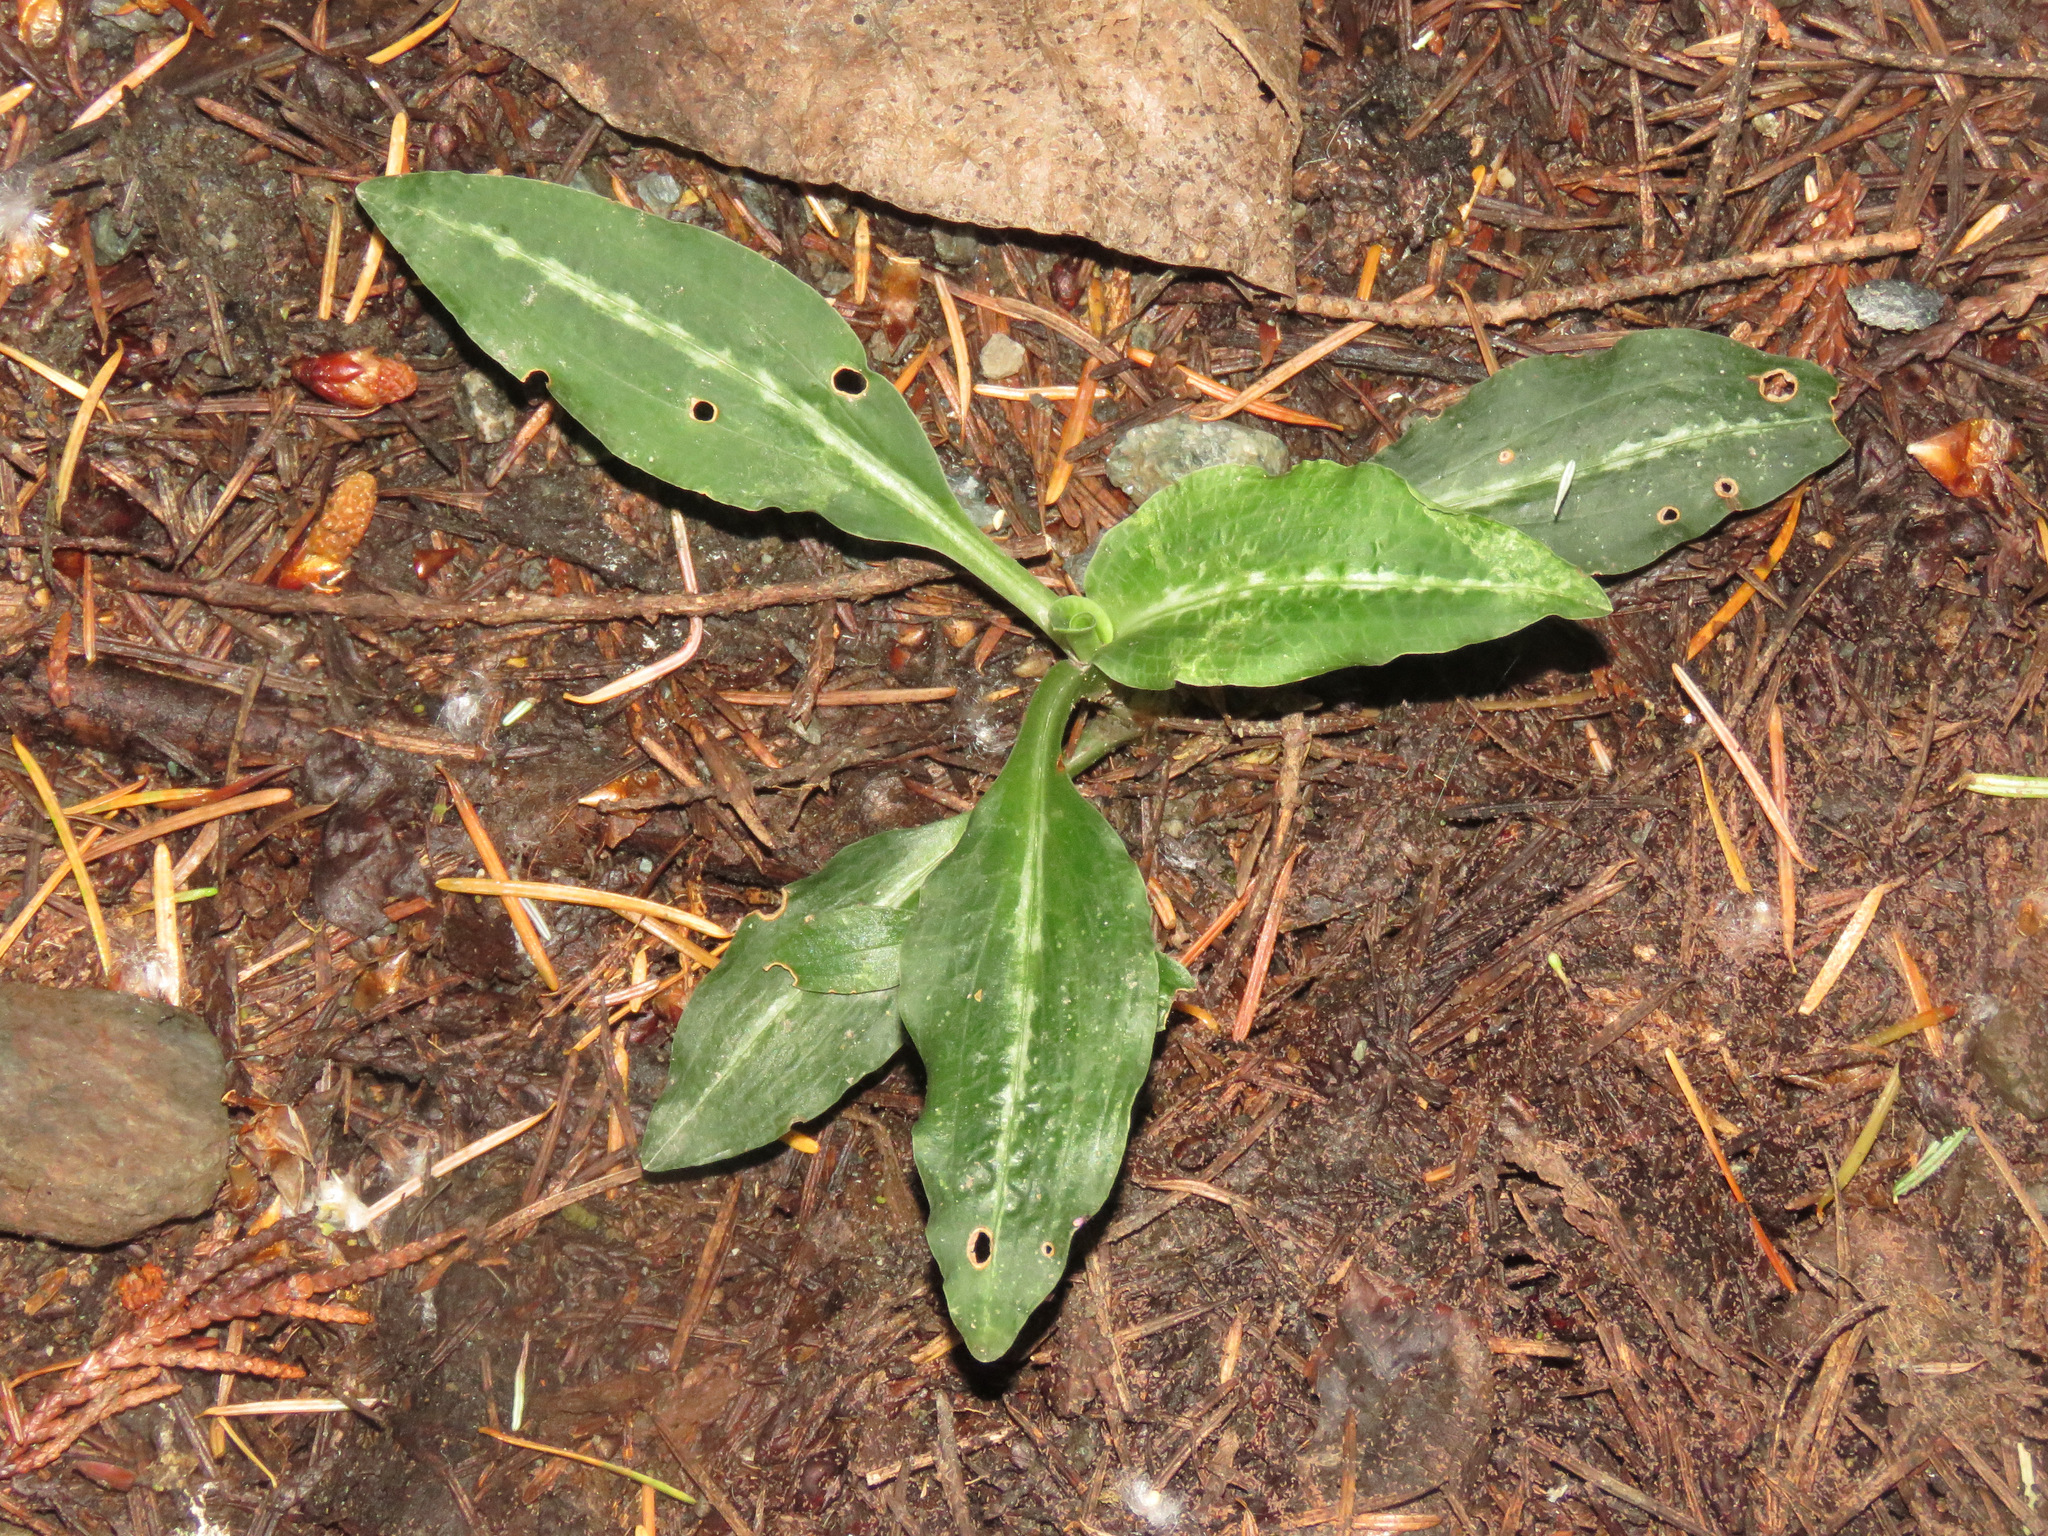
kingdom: Plantae
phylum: Tracheophyta
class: Liliopsida
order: Asparagales
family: Orchidaceae
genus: Goodyera
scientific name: Goodyera oblongifolia
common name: Giant rattlesnake-plantain
